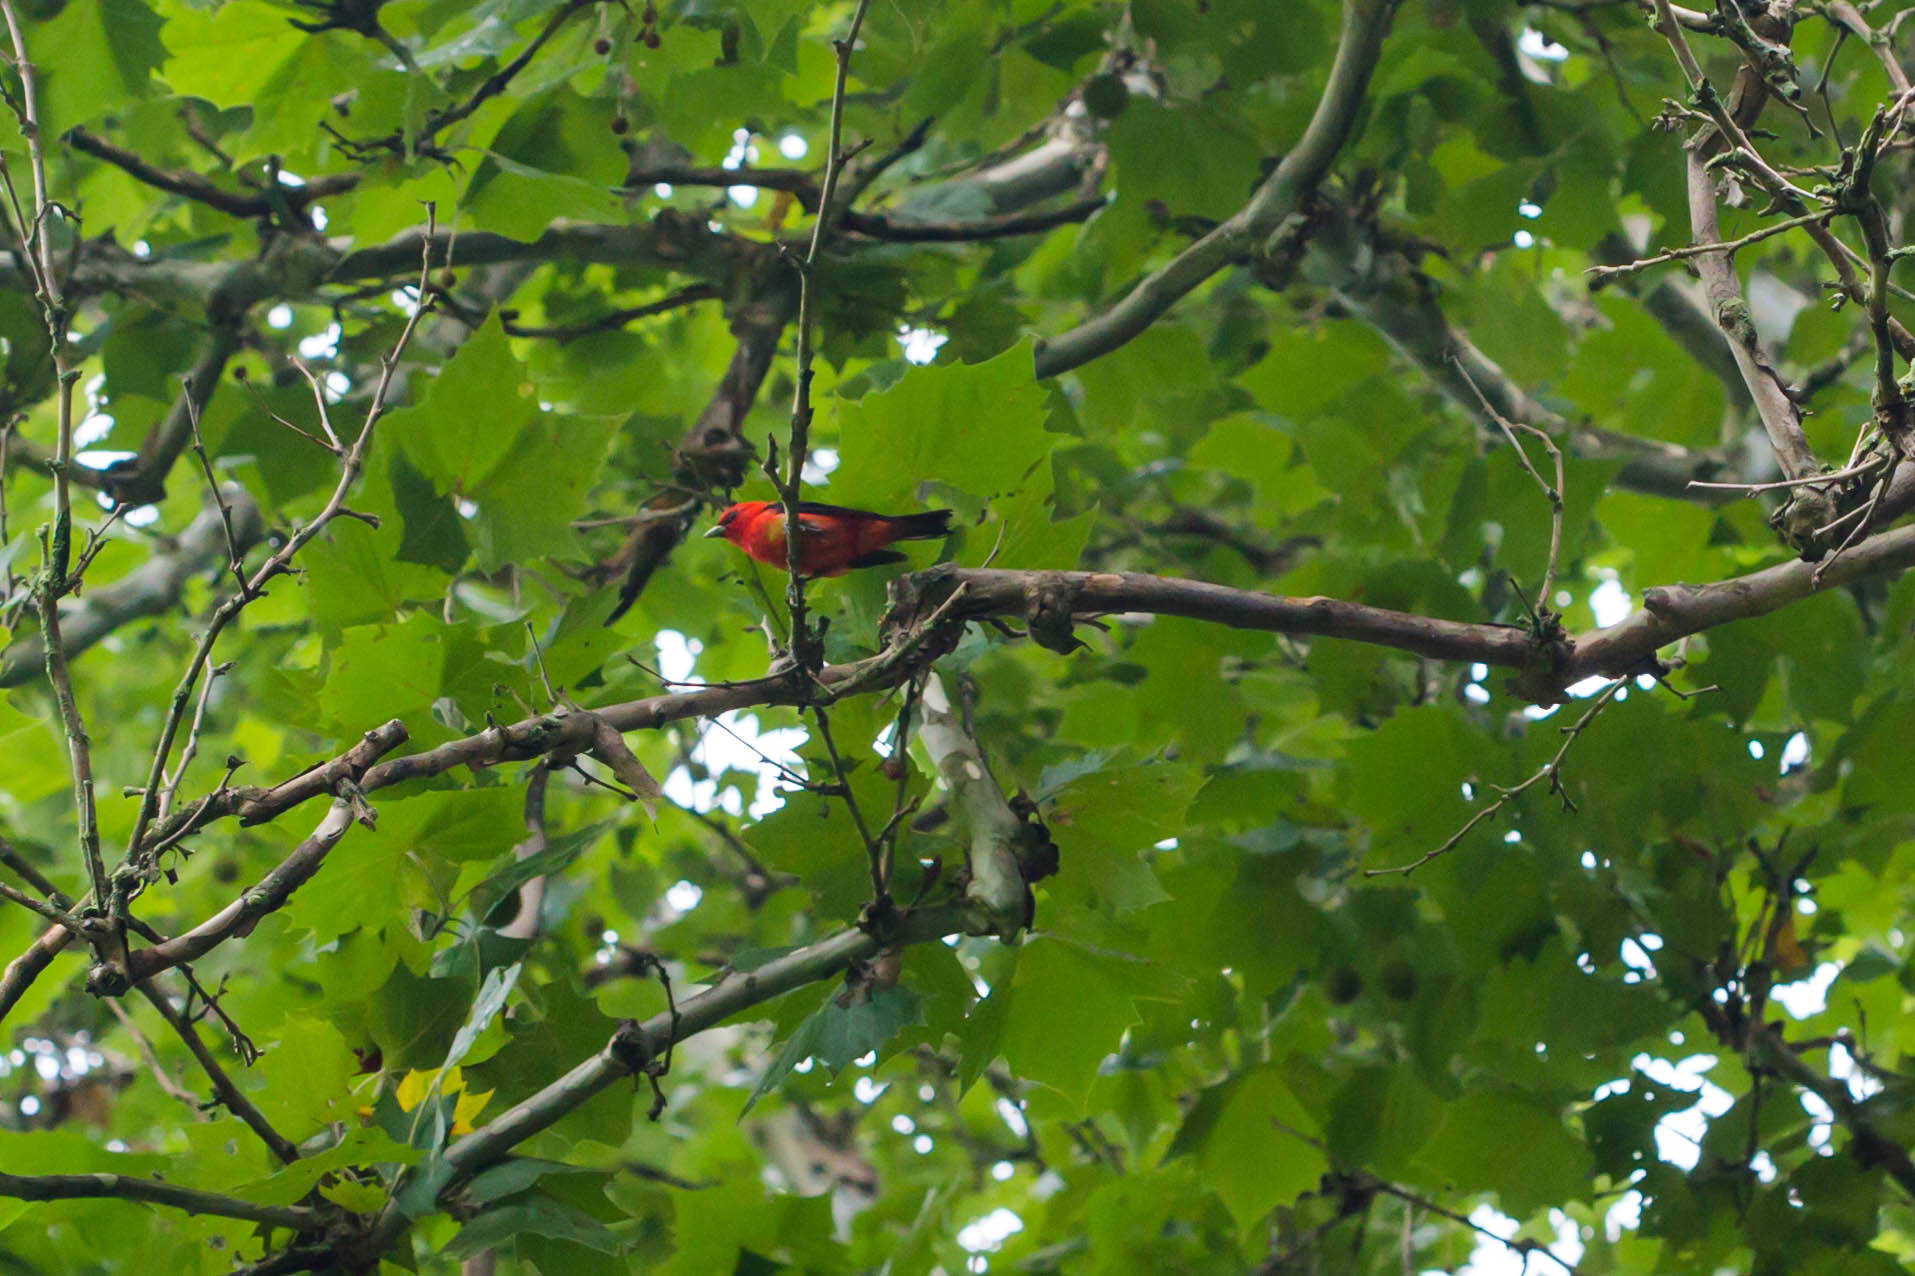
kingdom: Animalia
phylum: Chordata
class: Aves
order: Passeriformes
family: Cardinalidae
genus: Piranga
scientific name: Piranga olivacea
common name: Scarlet tanager
